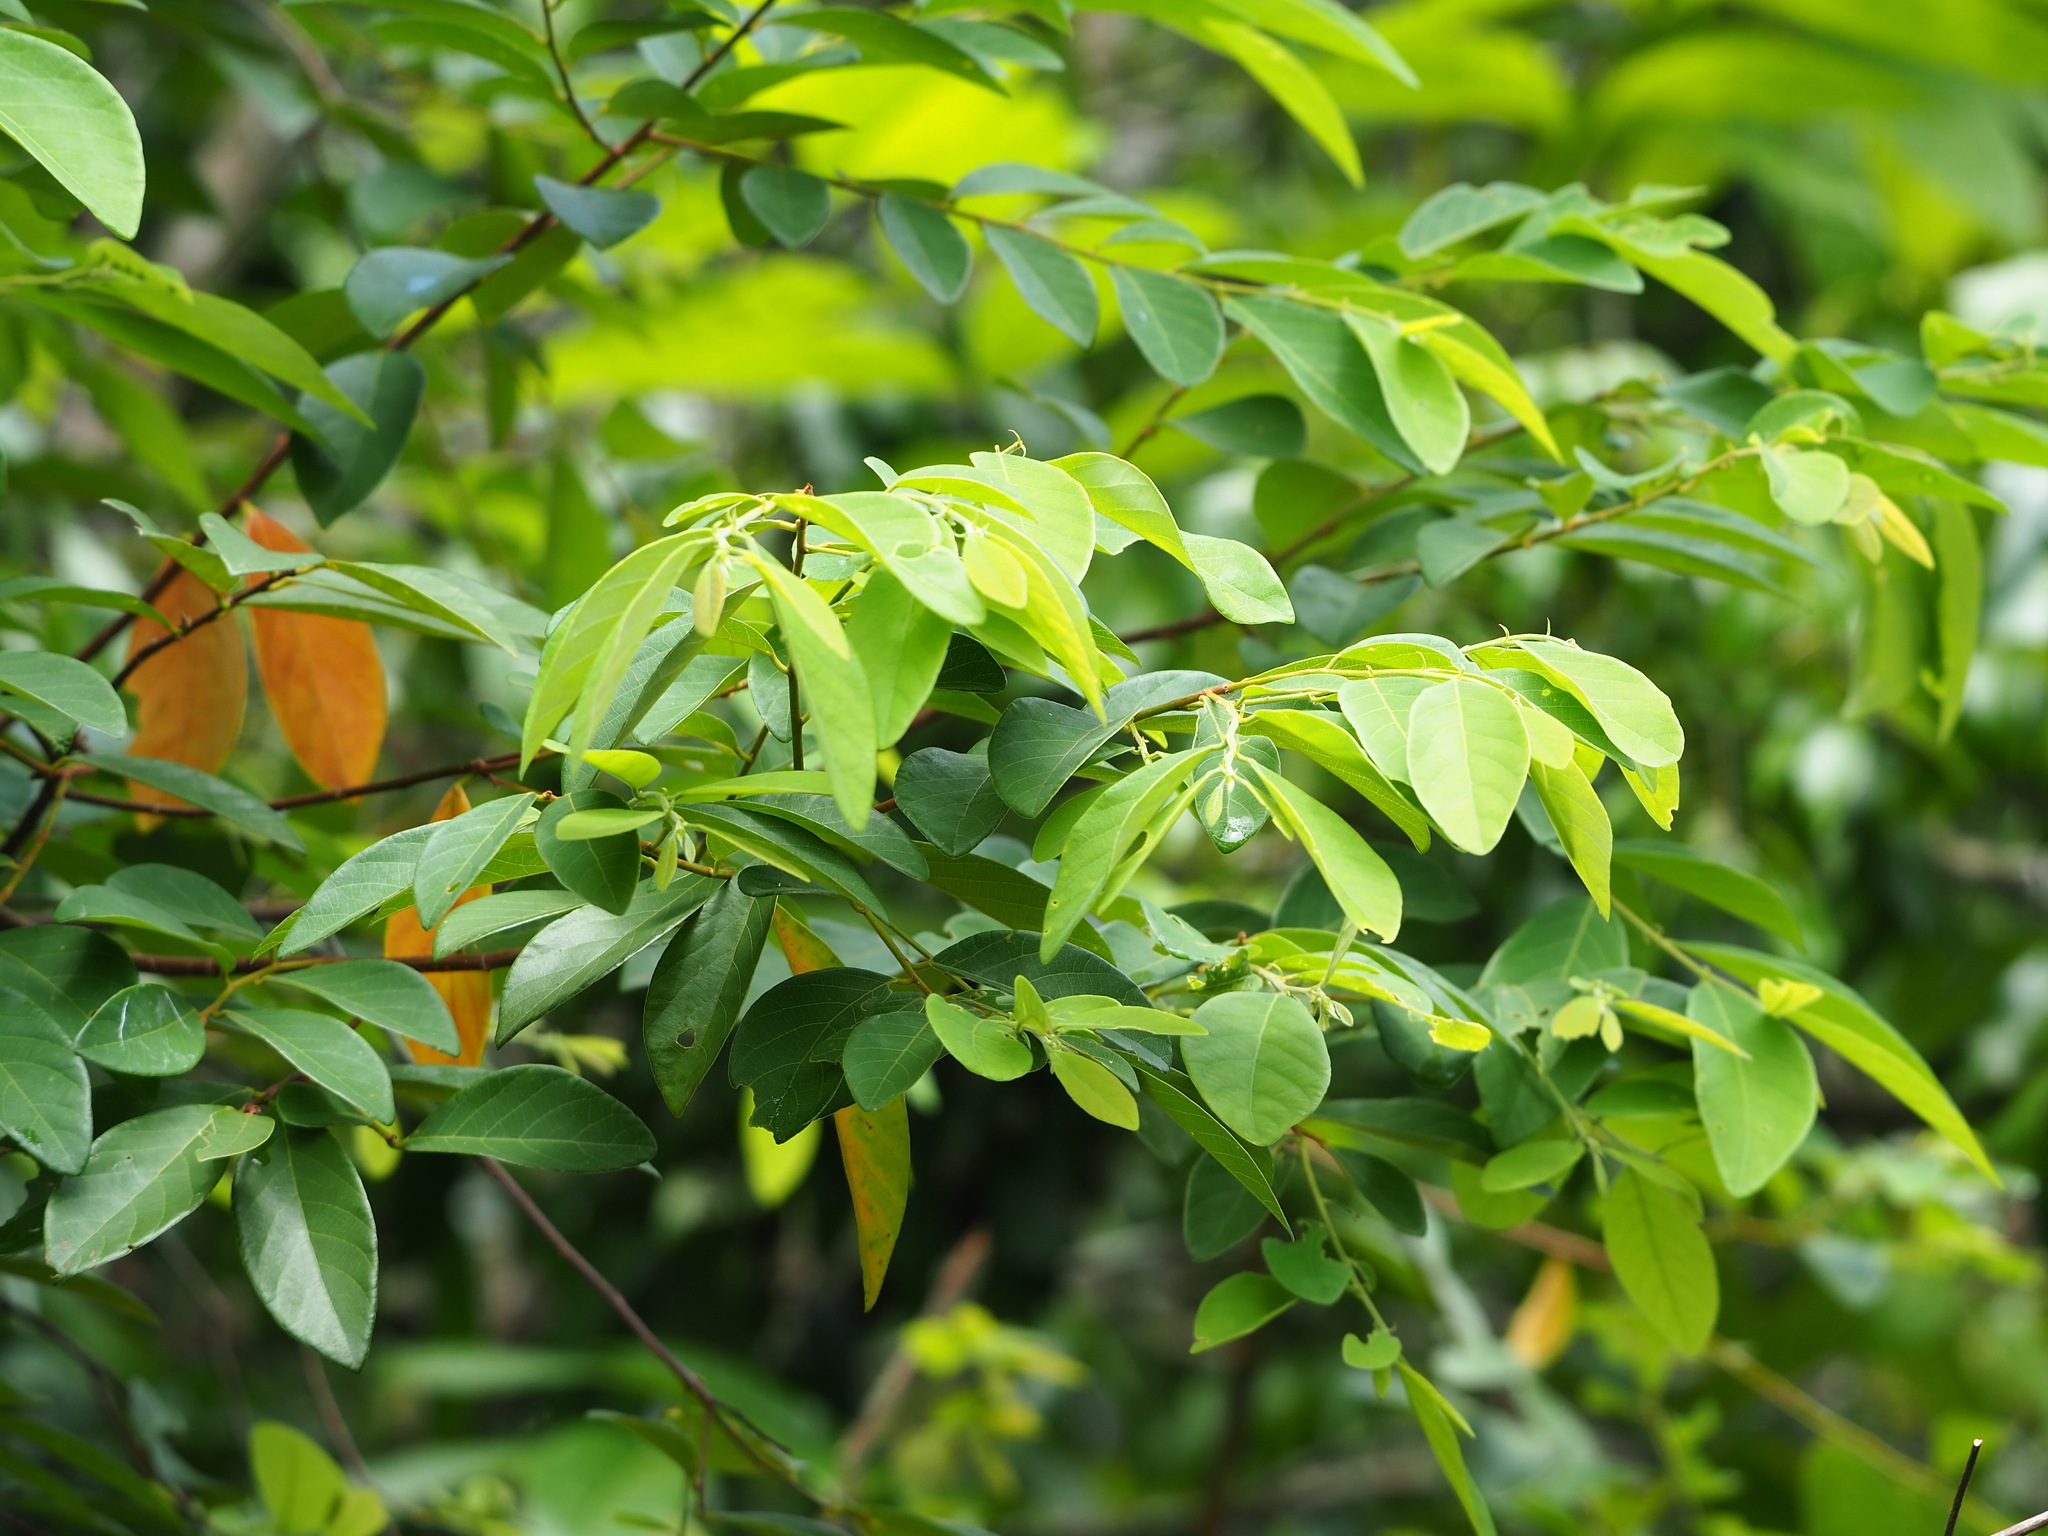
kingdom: Plantae
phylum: Tracheophyta
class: Magnoliopsida
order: Malpighiales
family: Phyllanthaceae
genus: Bridelia
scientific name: Bridelia tomentosa
